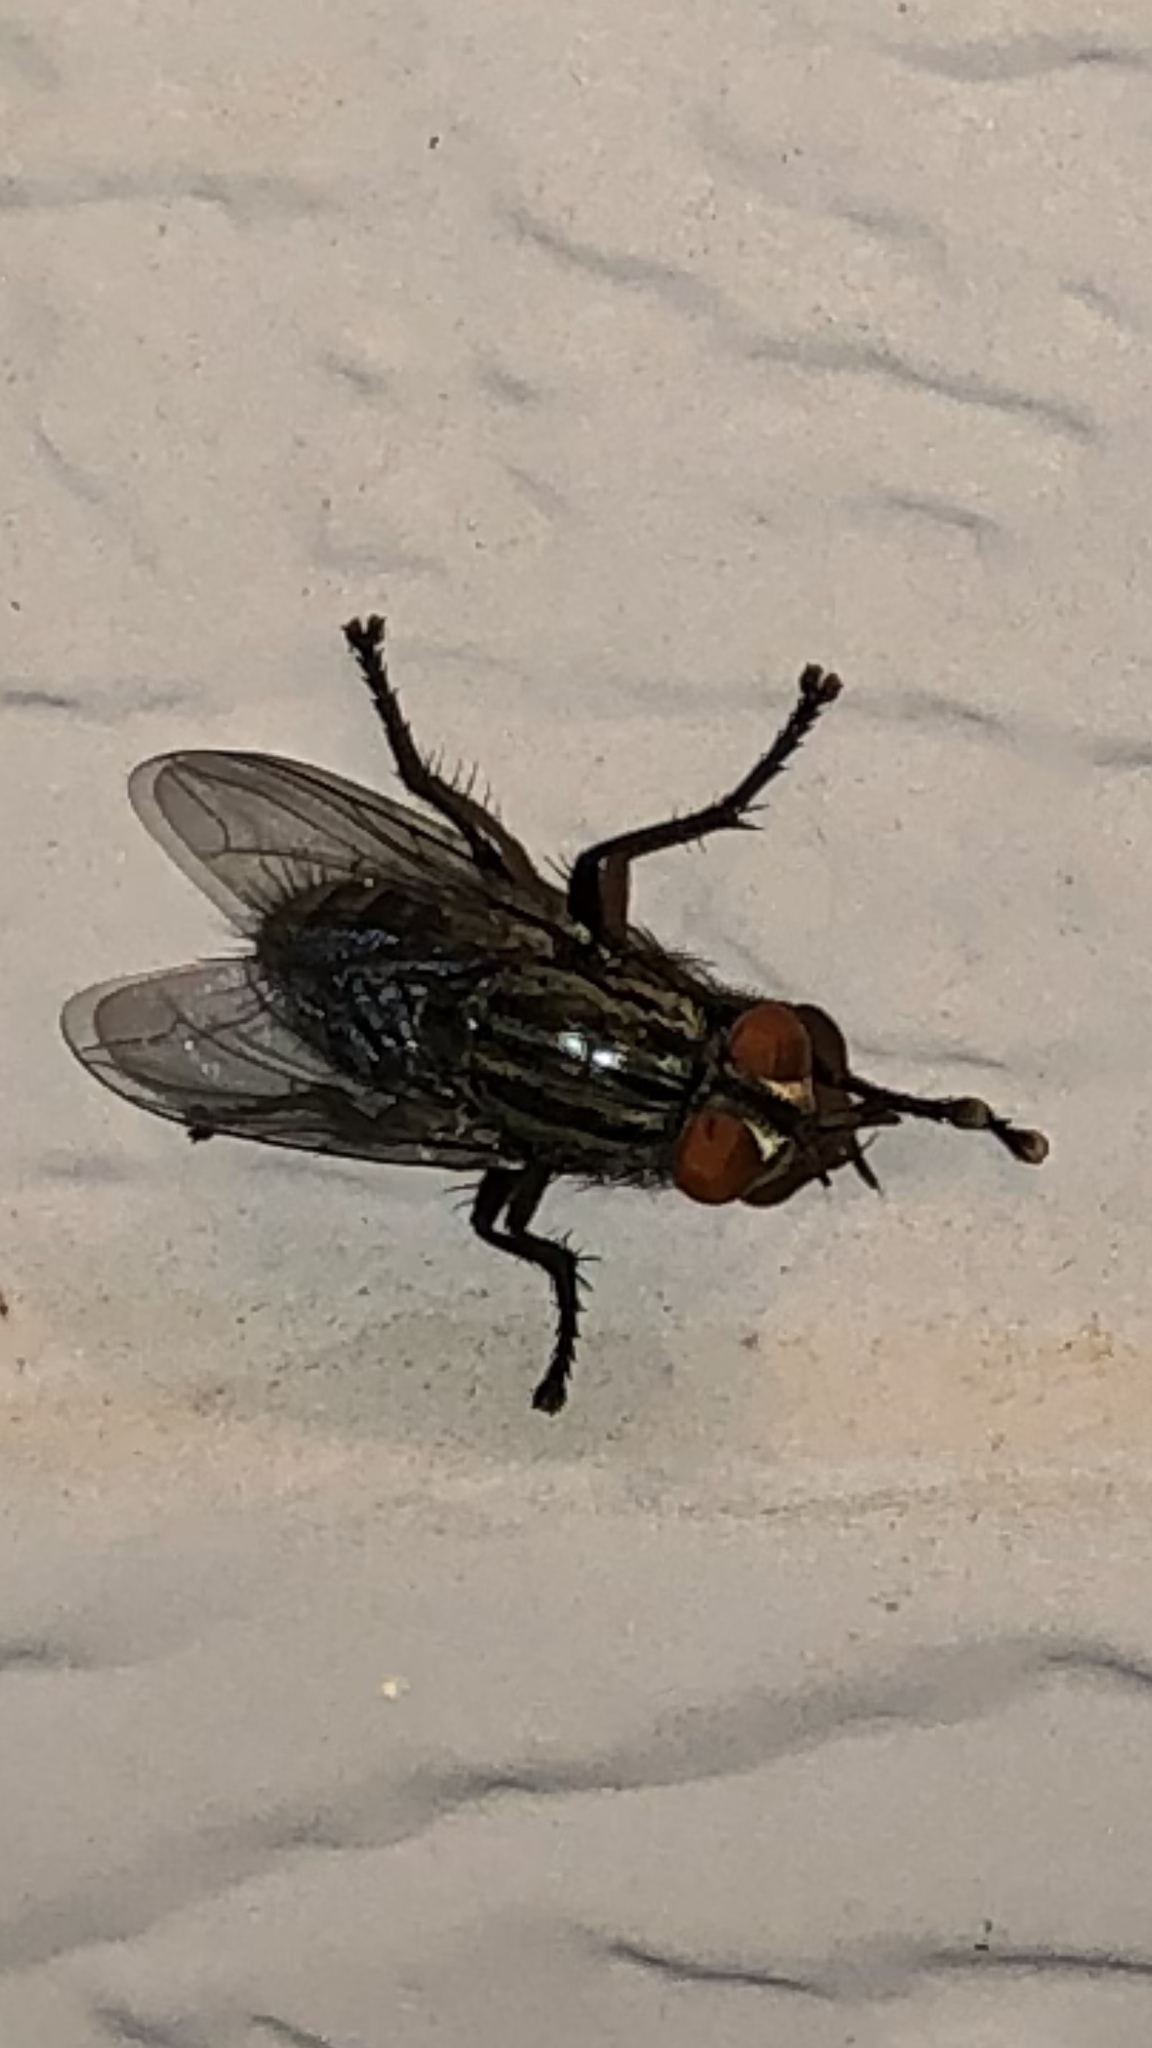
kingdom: Animalia
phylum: Arthropoda
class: Insecta
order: Diptera
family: Sarcophagidae
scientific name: Sarcophagidae
